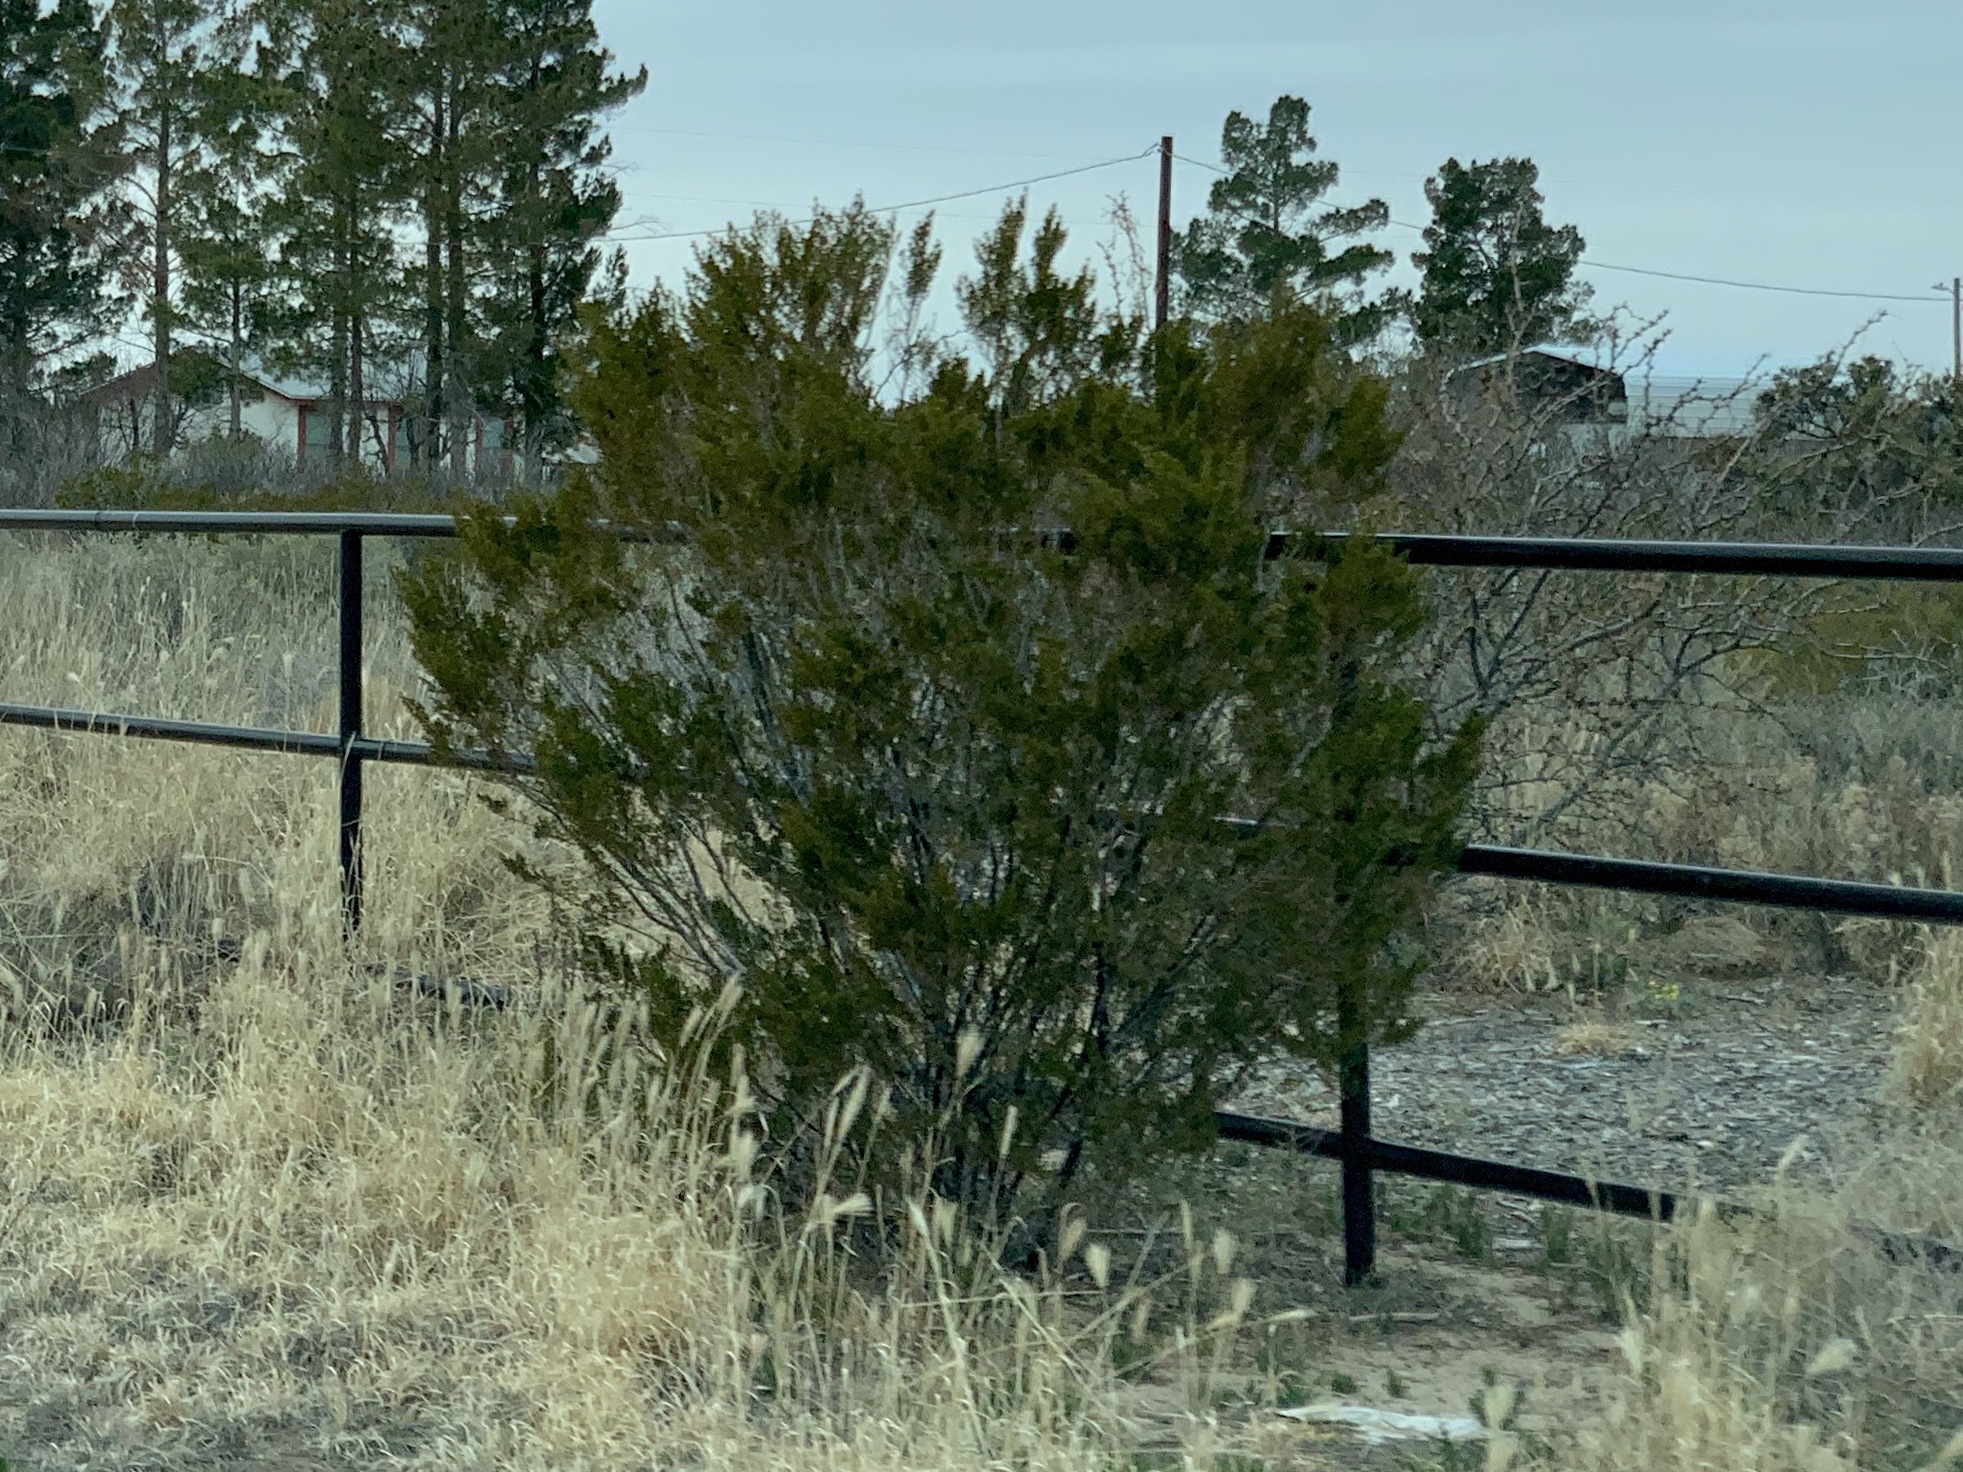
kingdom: Plantae
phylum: Tracheophyta
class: Magnoliopsida
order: Zygophyllales
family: Zygophyllaceae
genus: Larrea
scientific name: Larrea tridentata
